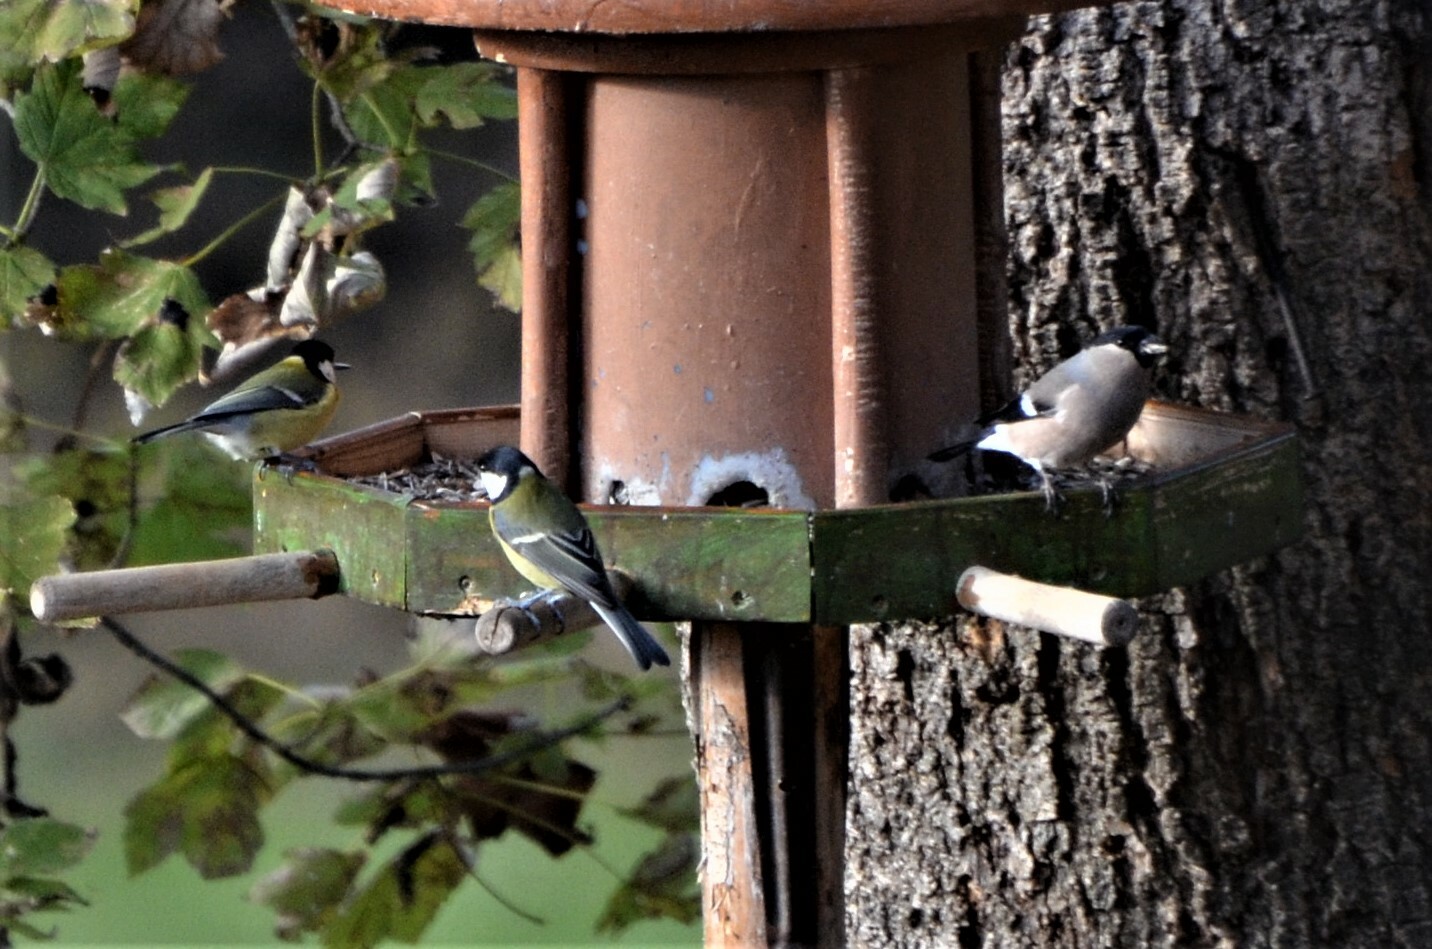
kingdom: Animalia
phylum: Chordata
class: Aves
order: Passeriformes
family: Paridae
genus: Parus
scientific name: Parus major
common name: Great tit
